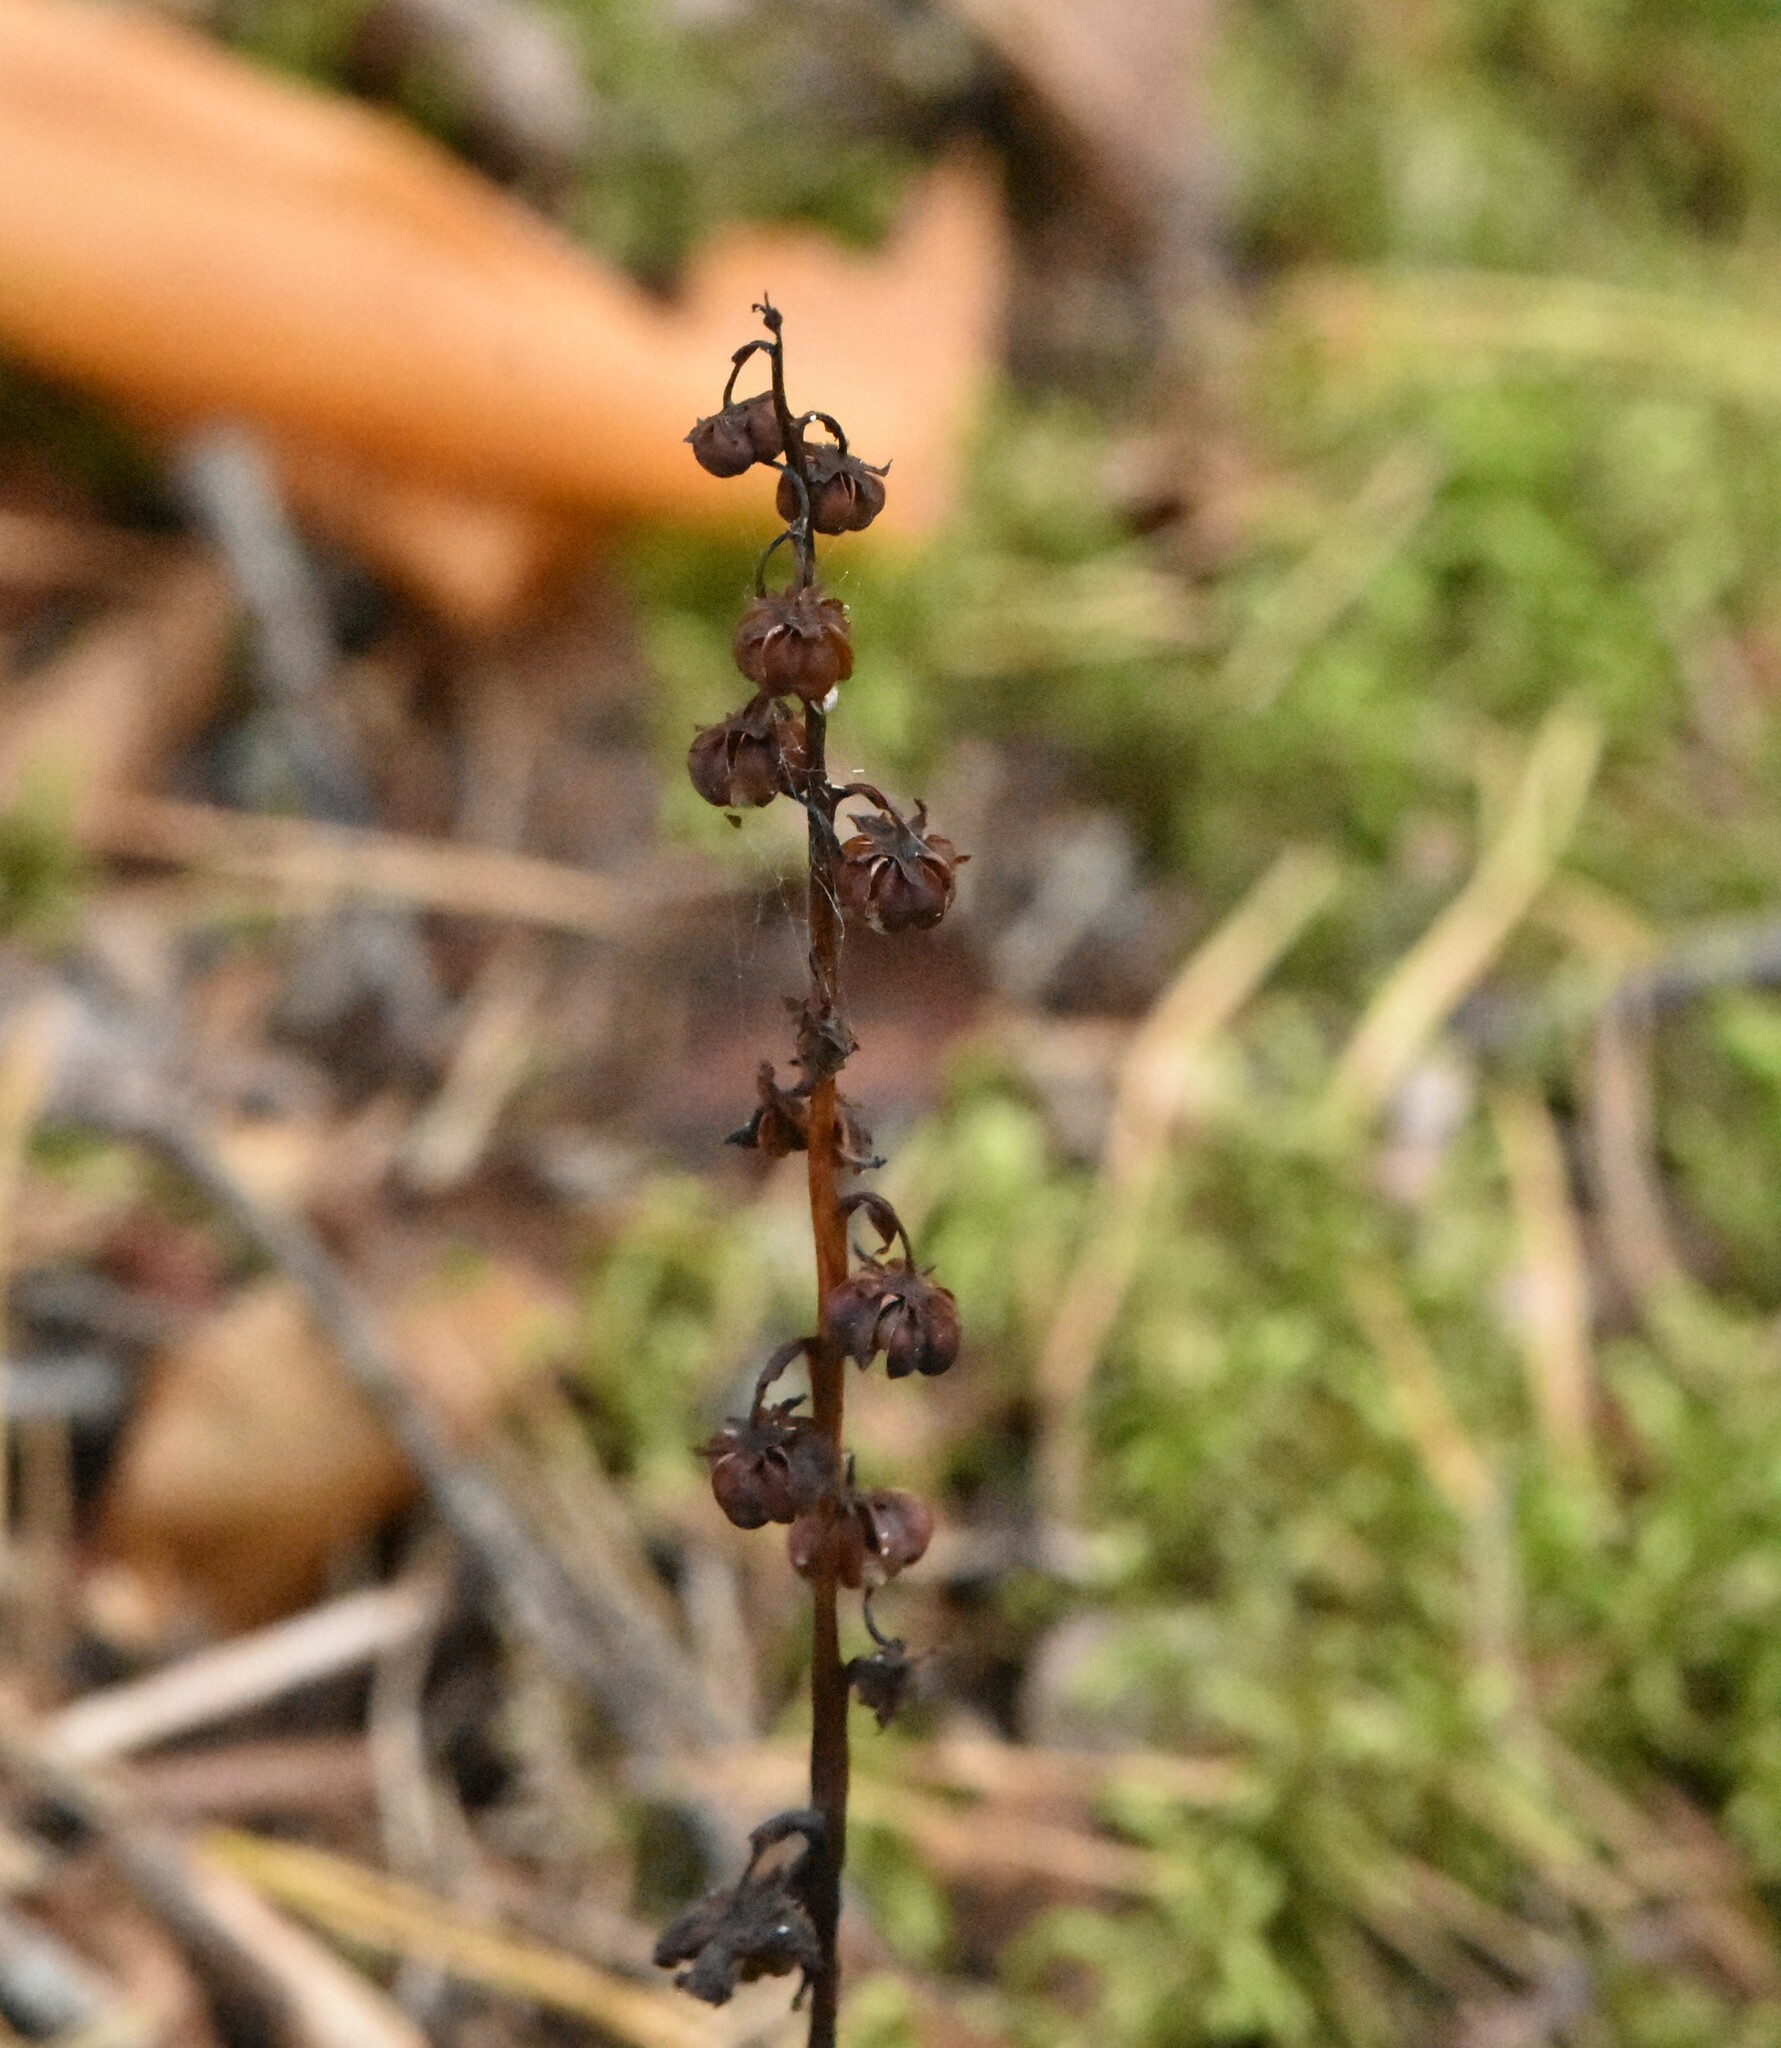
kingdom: Plantae
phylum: Tracheophyta
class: Magnoliopsida
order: Ericales
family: Ericaceae
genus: Pyrola
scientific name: Pyrola rotundifolia
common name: Round-leaved wintergreen
